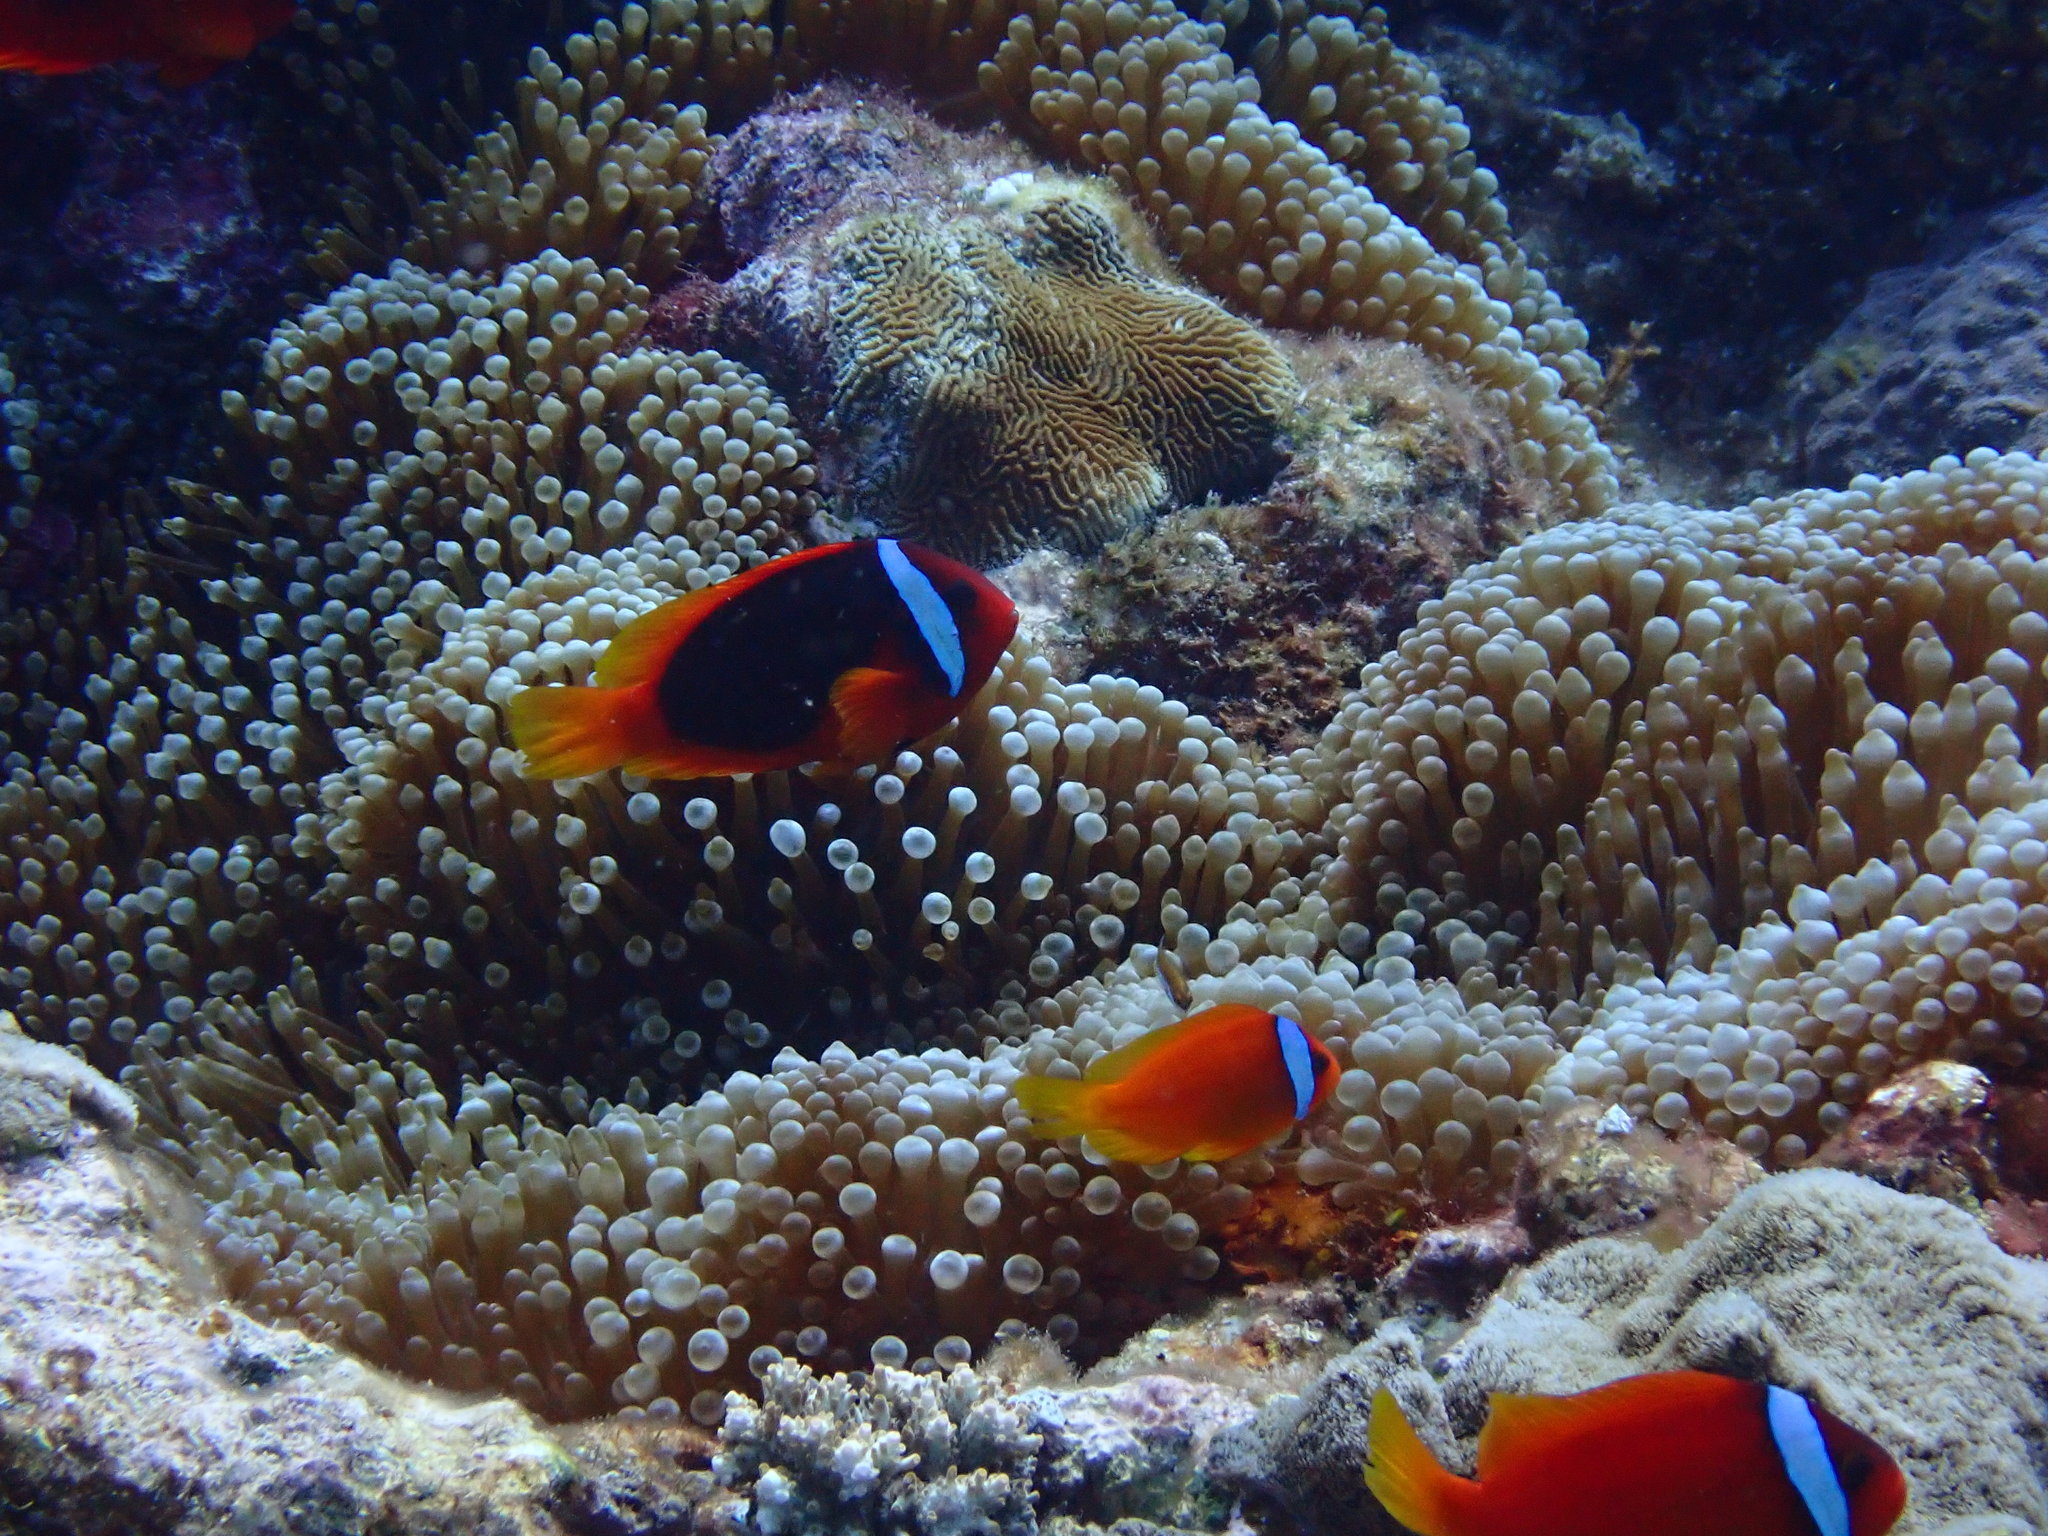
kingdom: Animalia
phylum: Chordata
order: Perciformes
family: Pomacentridae
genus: Amphiprion
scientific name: Amphiprion frenatus
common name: Tomato anemonefish
